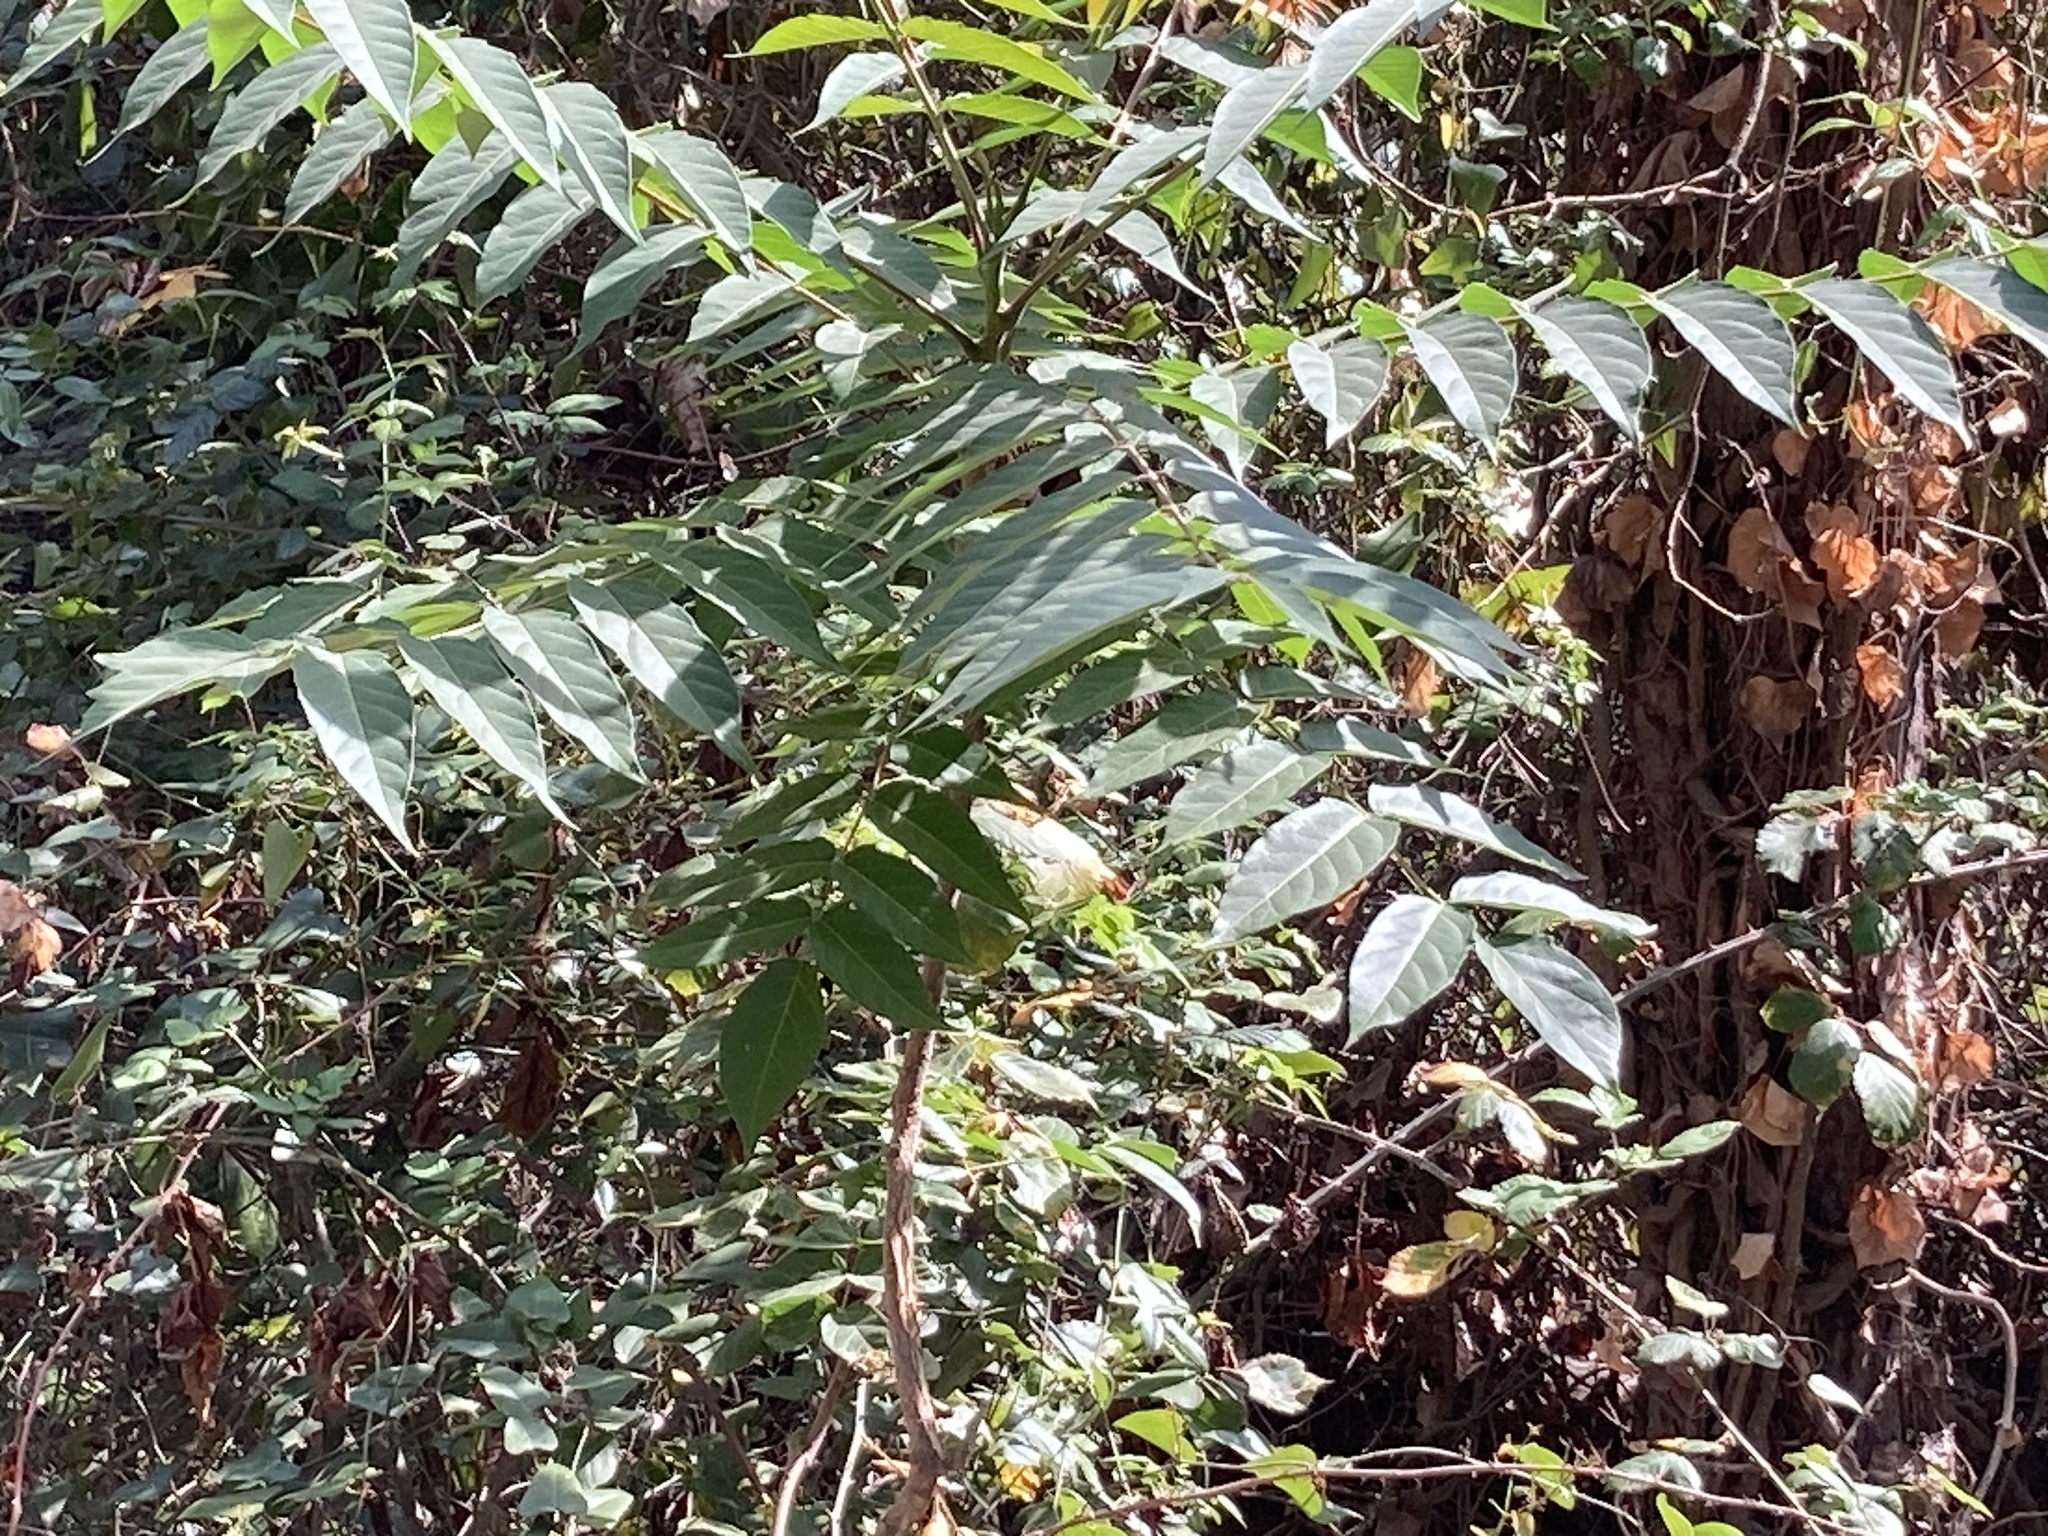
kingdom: Plantae
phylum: Tracheophyta
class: Magnoliopsida
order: Sapindales
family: Simaroubaceae
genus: Ailanthus
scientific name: Ailanthus altissima
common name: Tree-of-heaven
